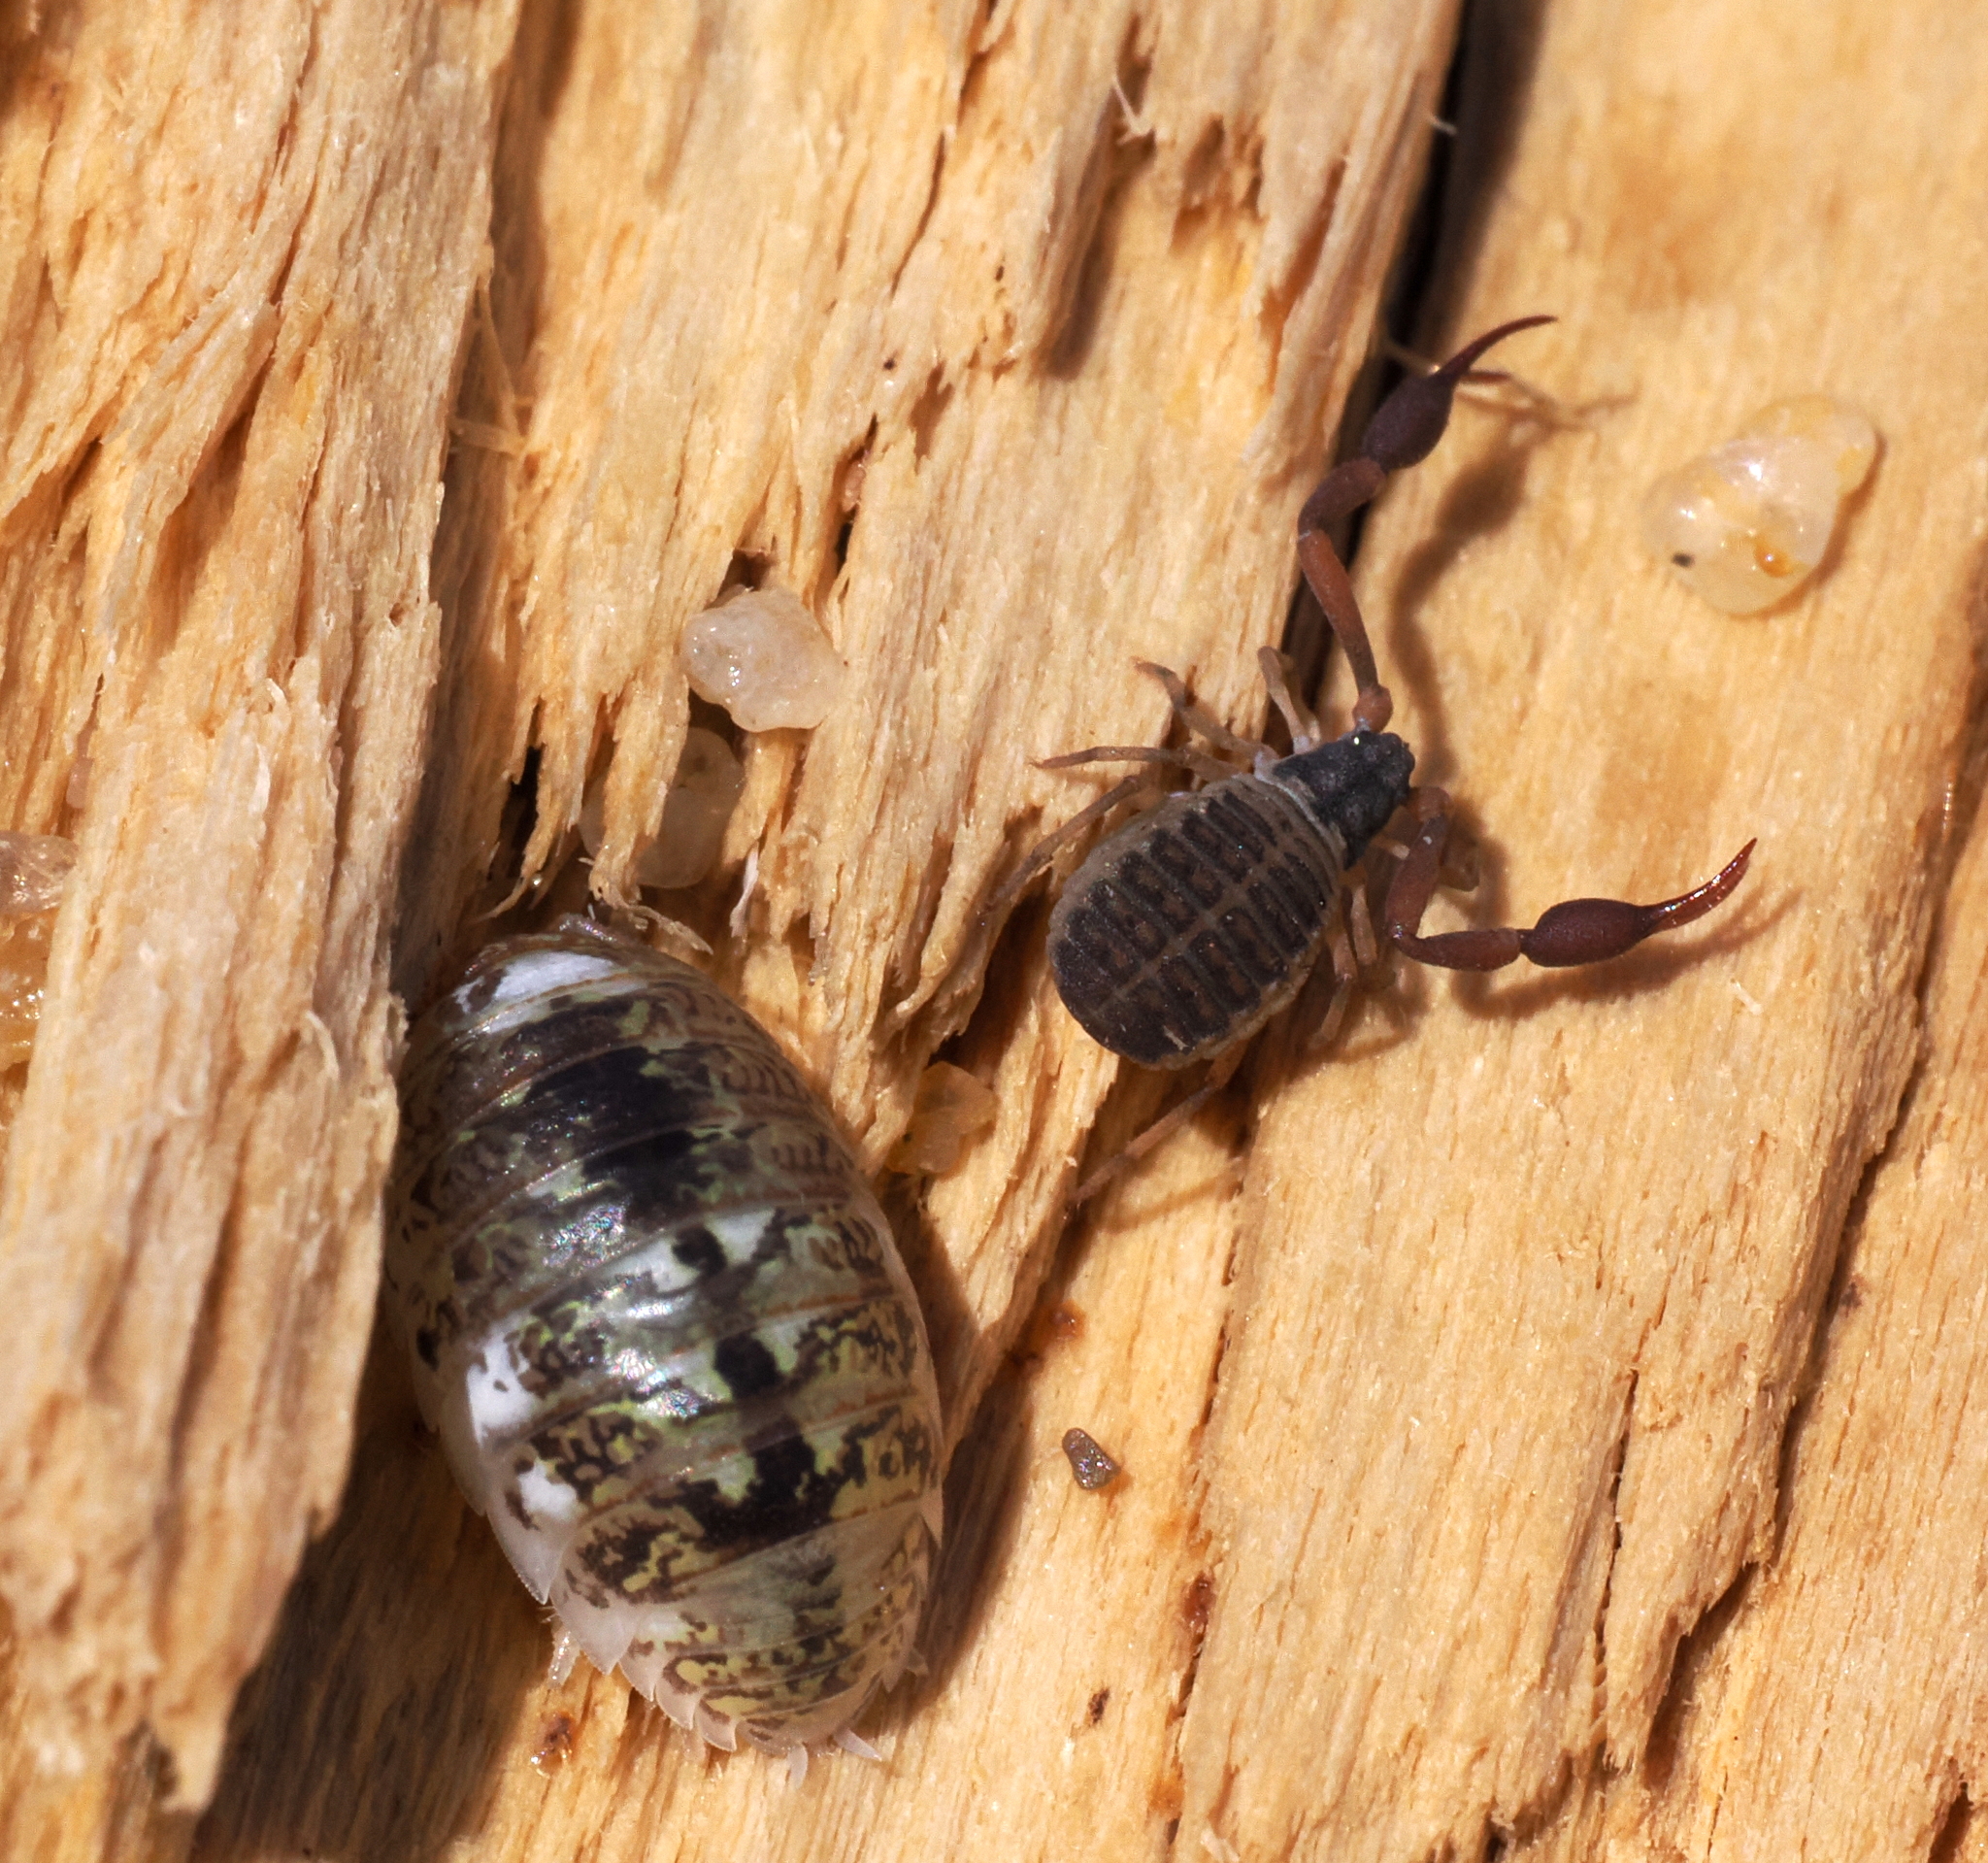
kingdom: Animalia
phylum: Arthropoda
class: Malacostraca
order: Isopoda
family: Alloniscidae
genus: Alloniscus
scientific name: Alloniscus perconvexus
